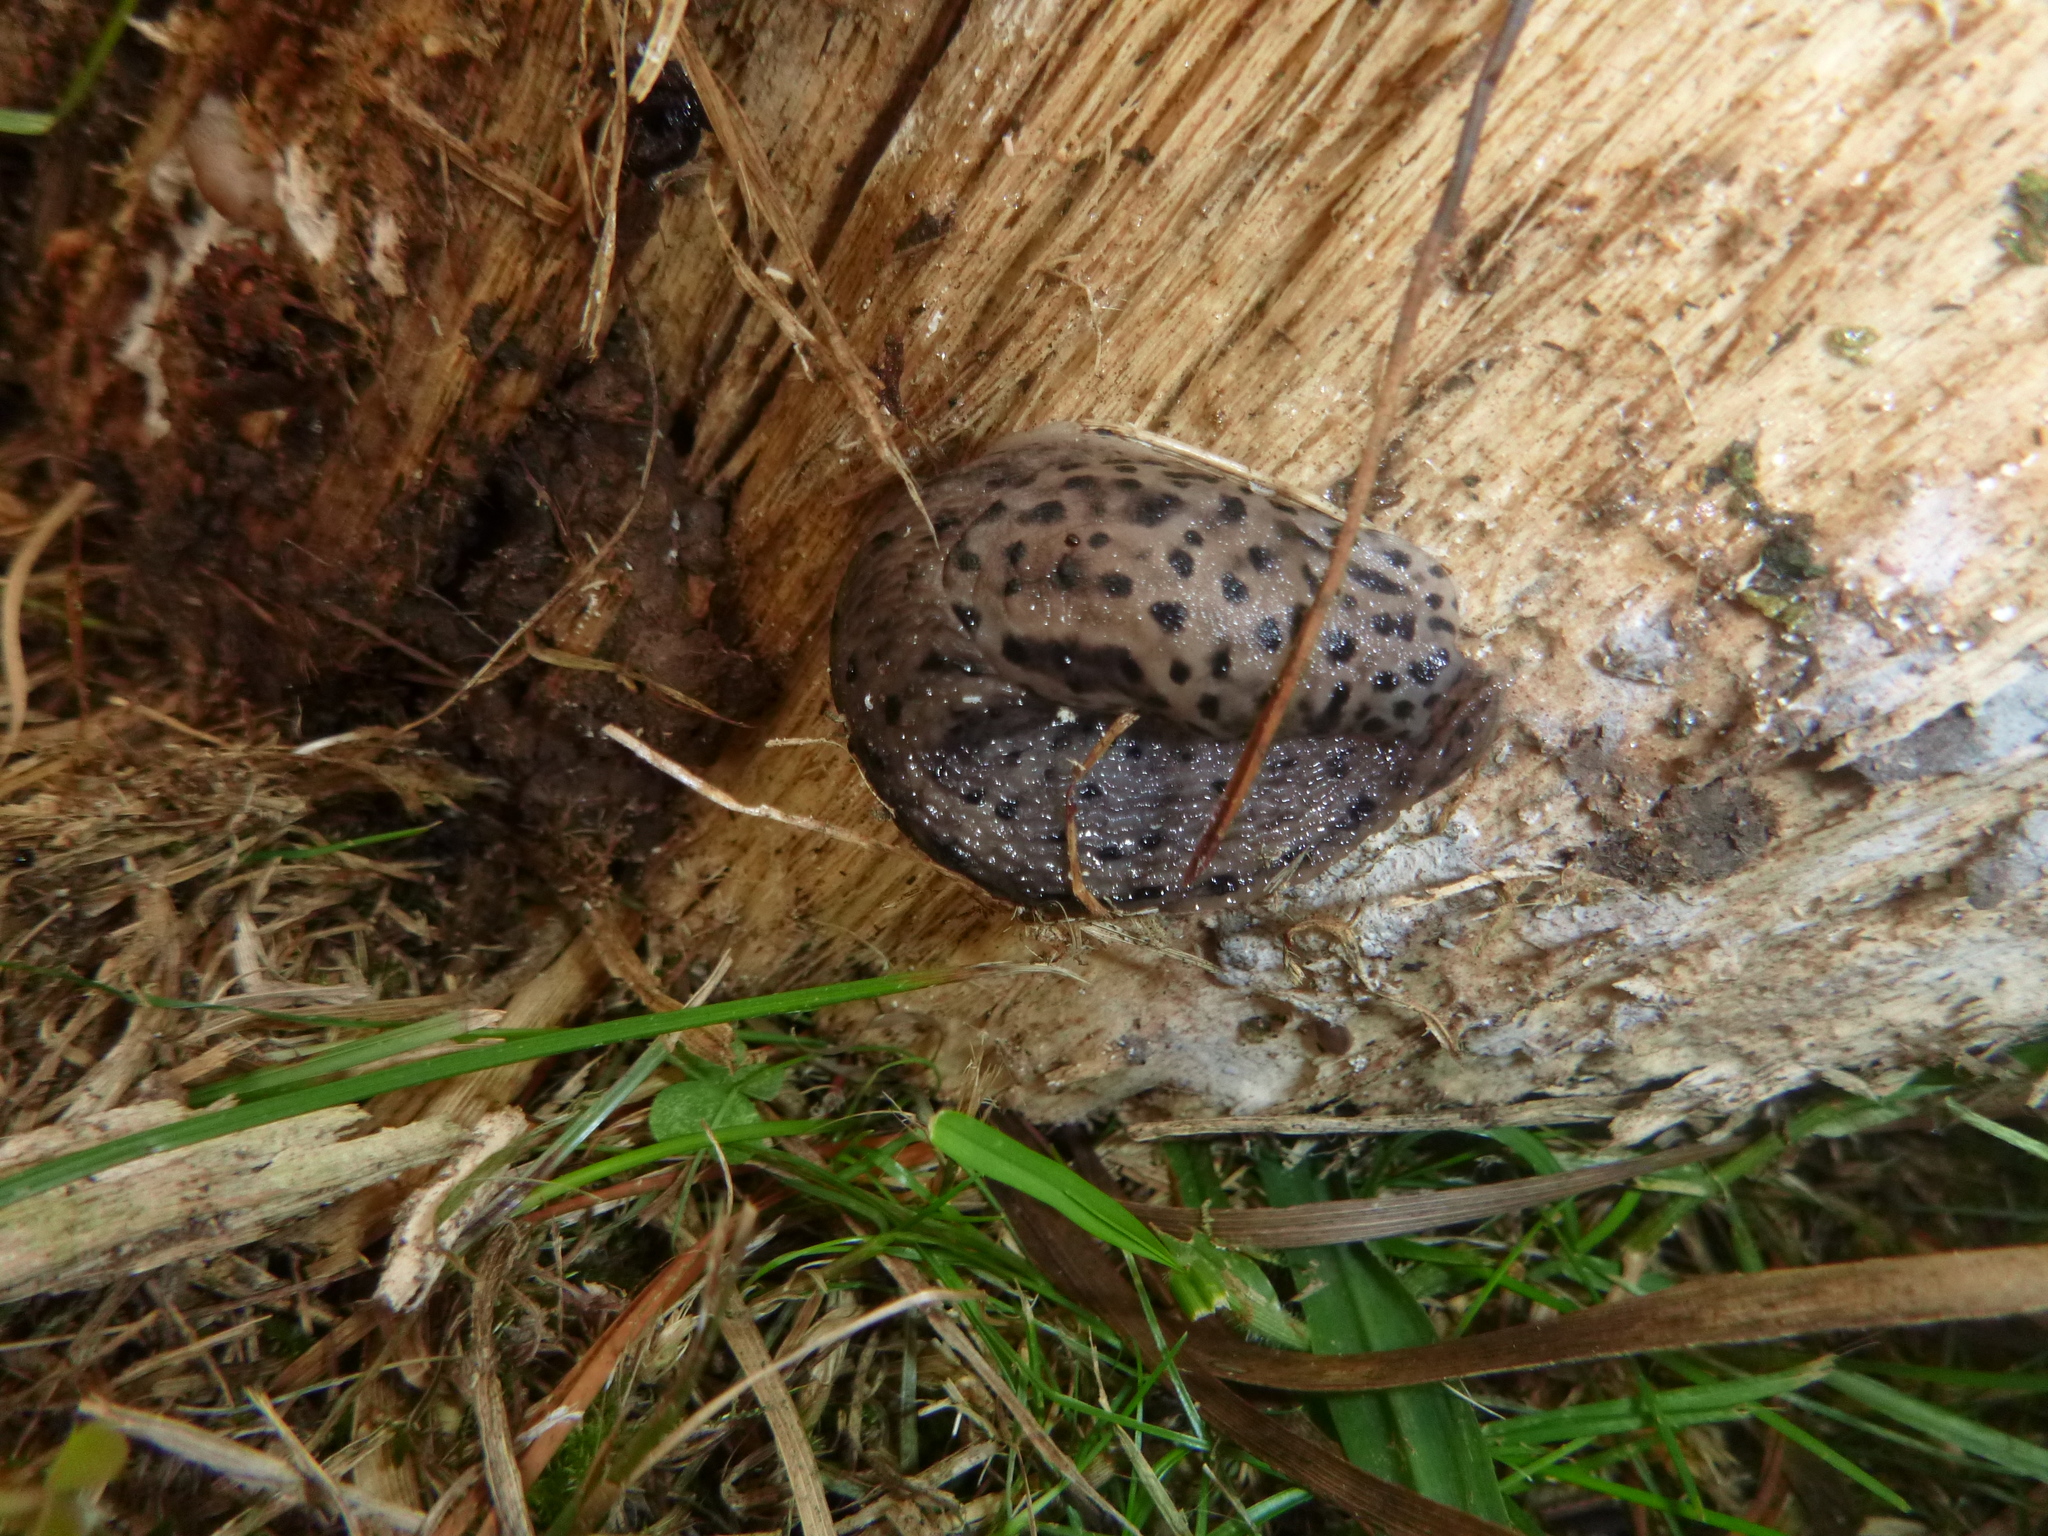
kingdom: Animalia
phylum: Mollusca
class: Gastropoda
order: Stylommatophora
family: Limacidae
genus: Limax
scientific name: Limax maximus
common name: Great grey slug
